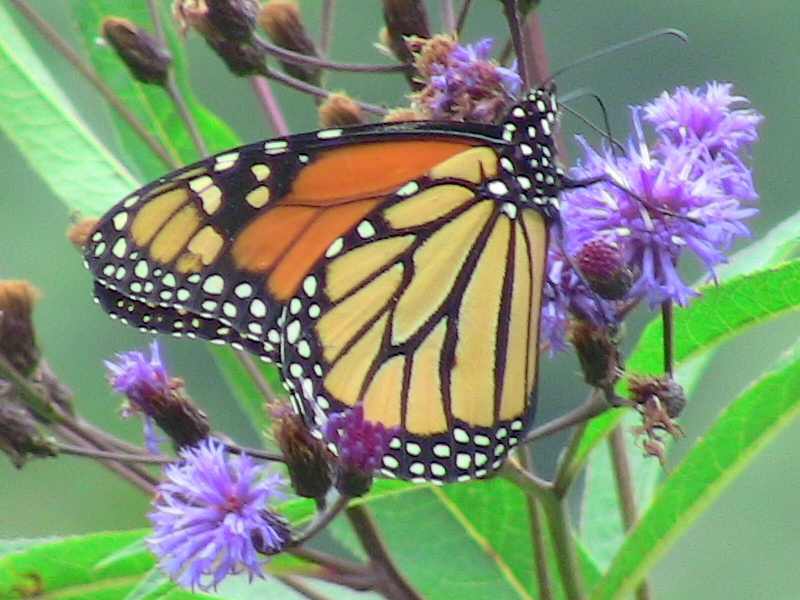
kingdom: Animalia
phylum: Arthropoda
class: Insecta
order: Lepidoptera
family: Nymphalidae
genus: Danaus
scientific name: Danaus plexippus
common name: Monarch
